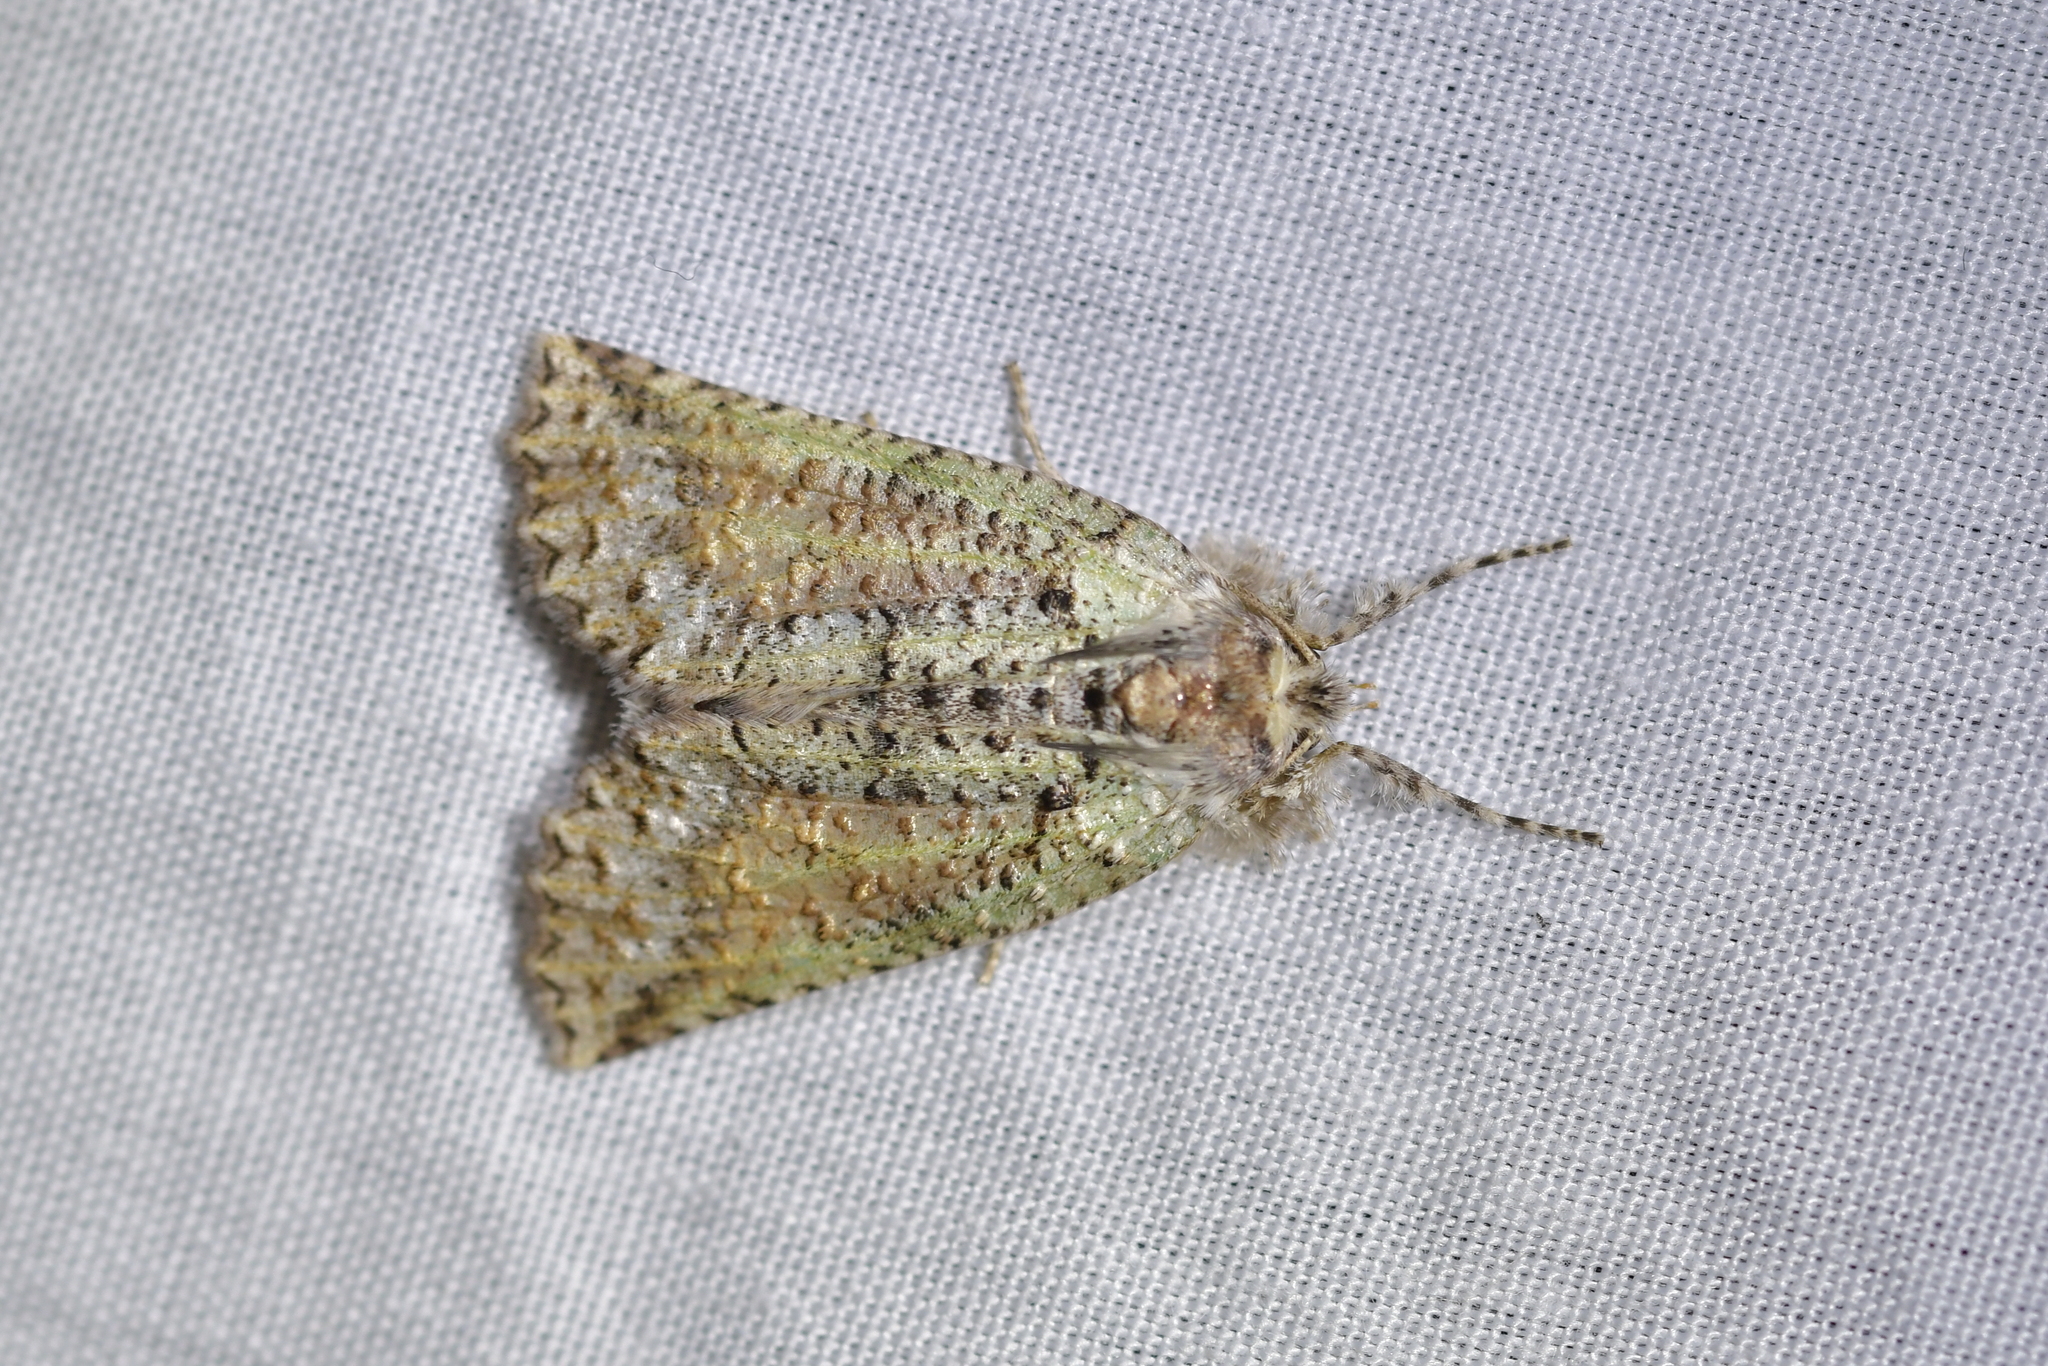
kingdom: Animalia
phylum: Arthropoda
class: Insecta
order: Lepidoptera
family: Geometridae
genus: Declana
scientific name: Declana floccosa
